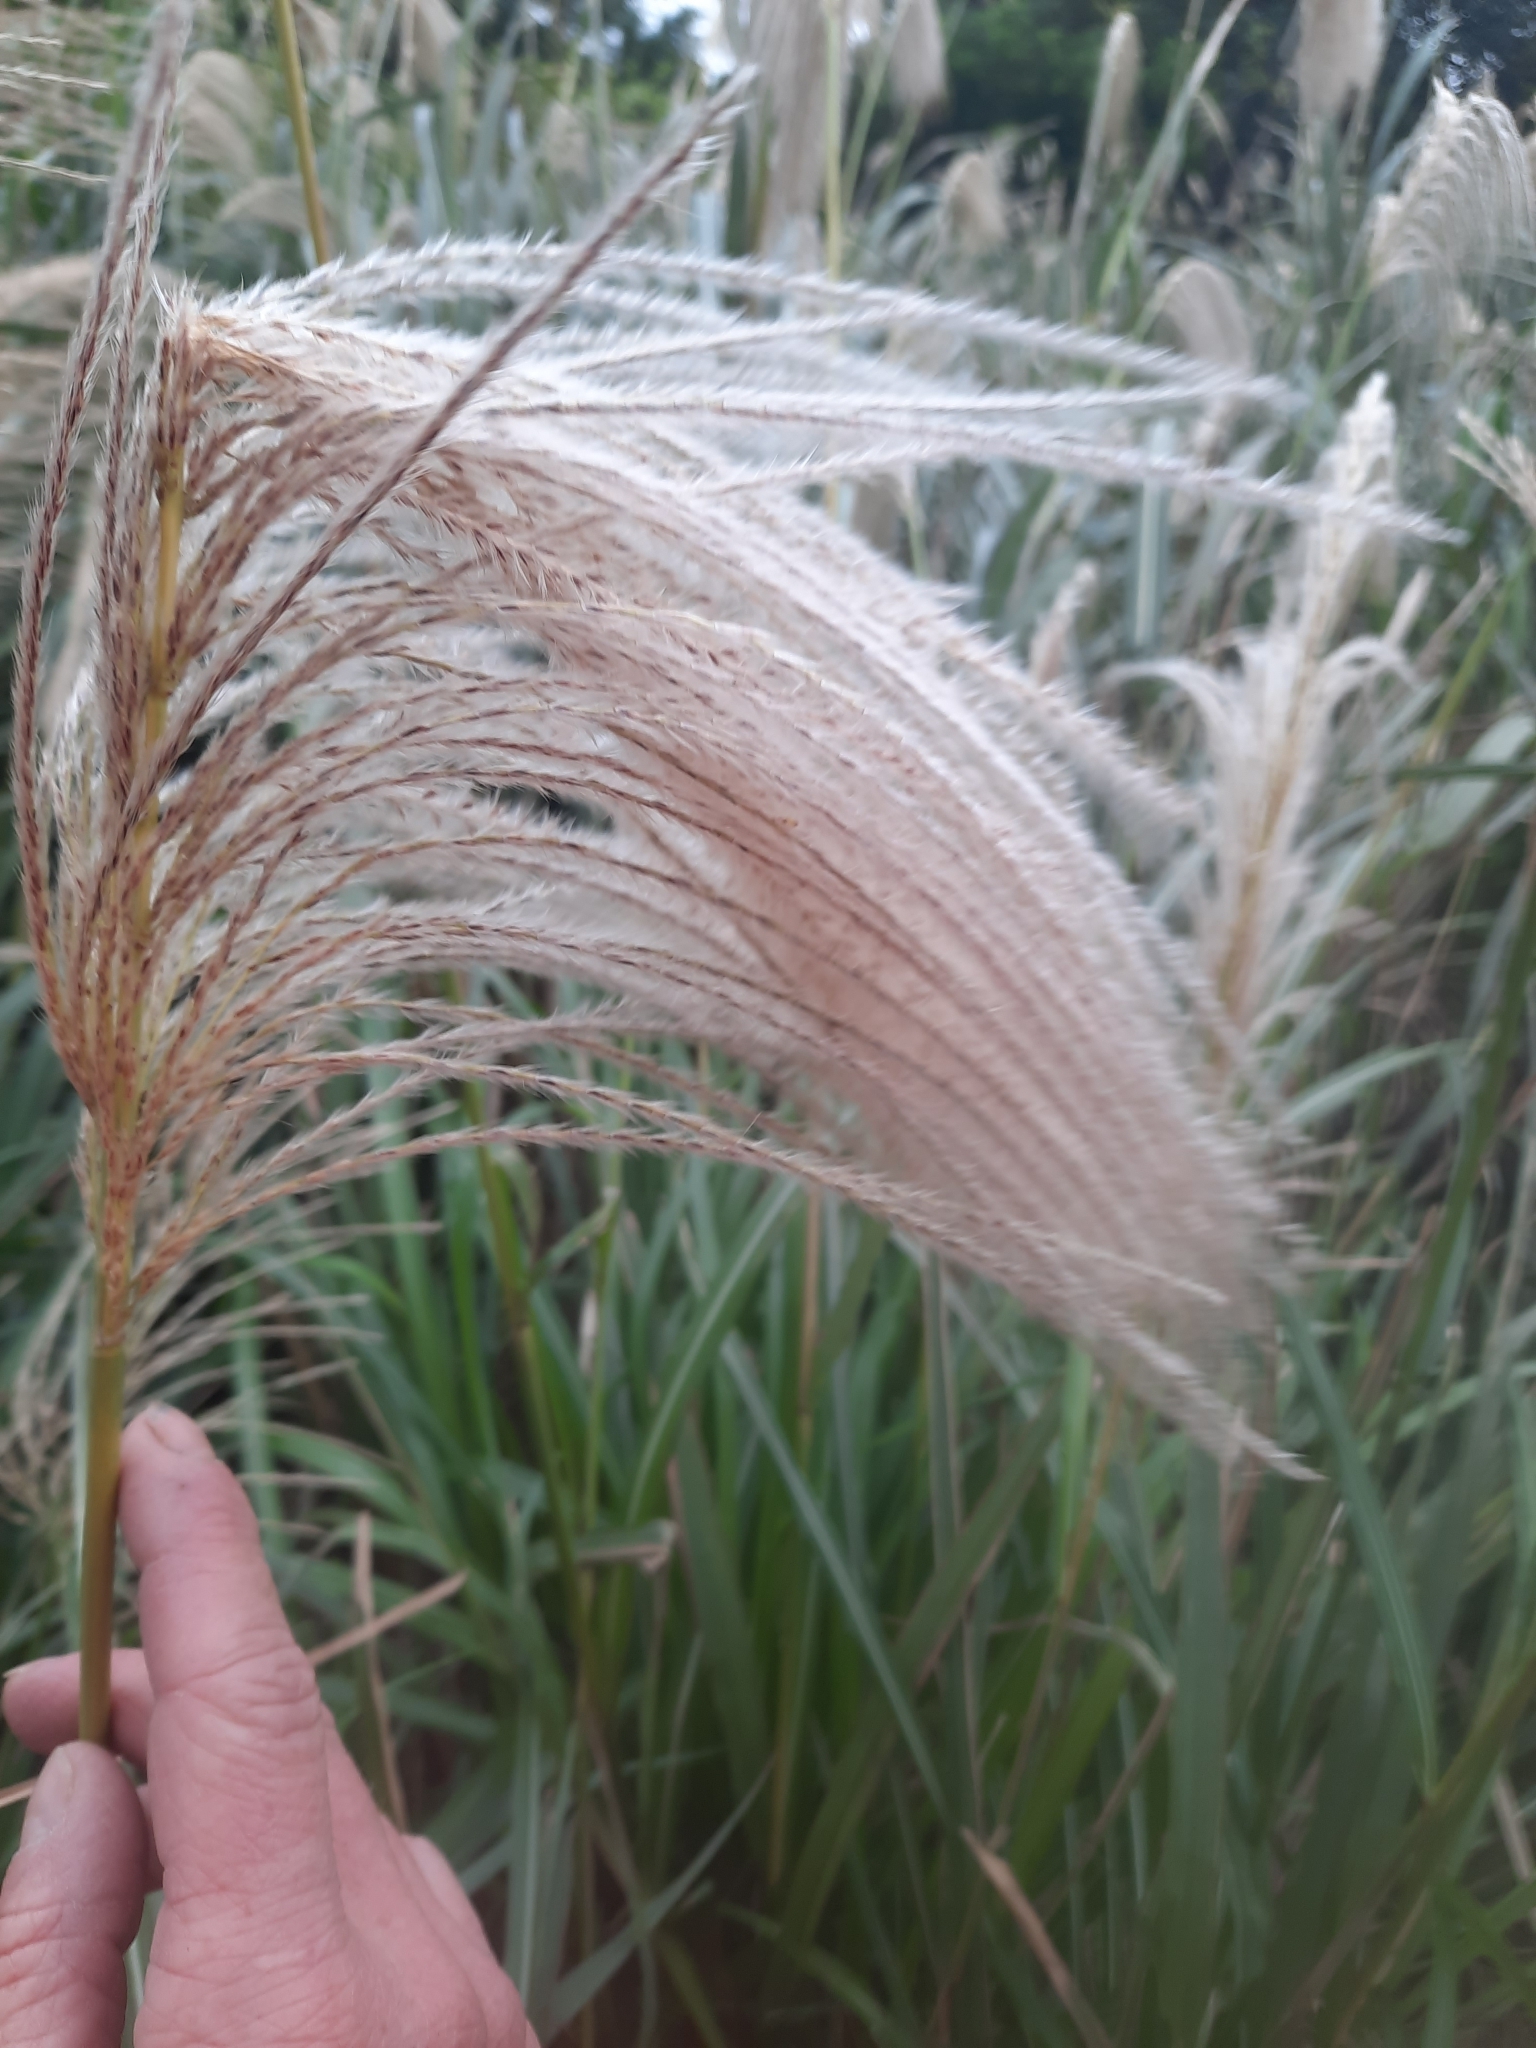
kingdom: Plantae
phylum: Tracheophyta
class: Liliopsida
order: Poales
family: Poaceae
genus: Miscanthus
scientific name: Miscanthus sinensis
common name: Chinese silvergrass
